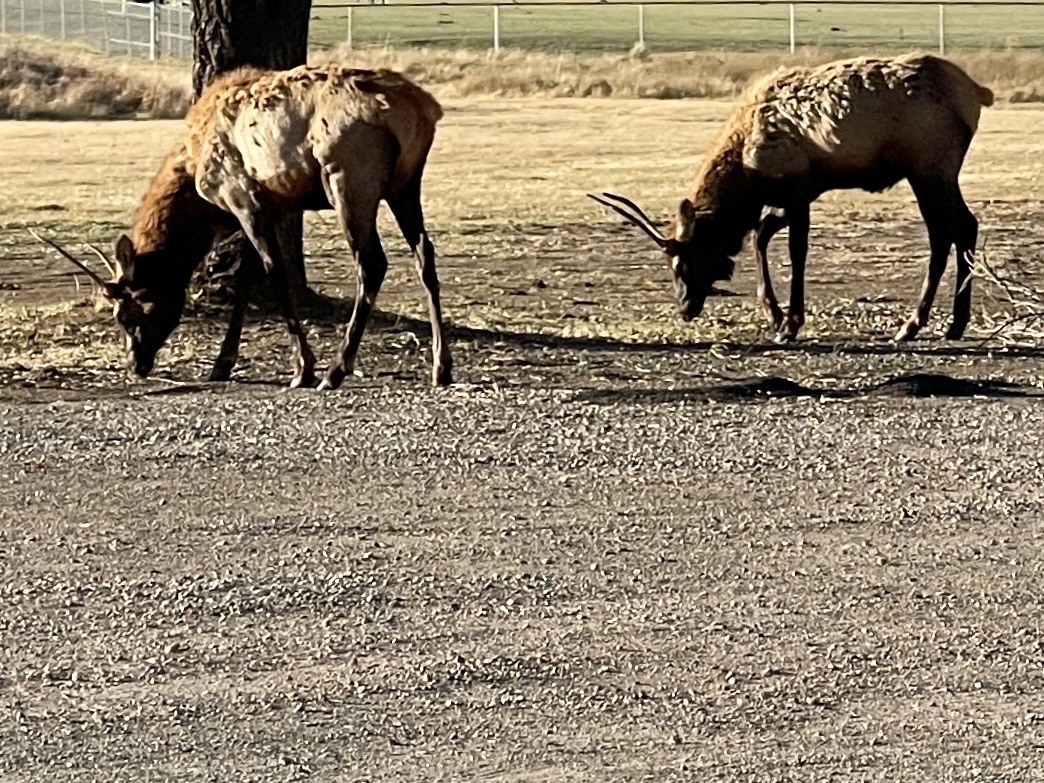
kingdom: Animalia
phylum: Chordata
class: Mammalia
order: Artiodactyla
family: Cervidae
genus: Cervus
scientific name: Cervus elaphus
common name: Red deer
